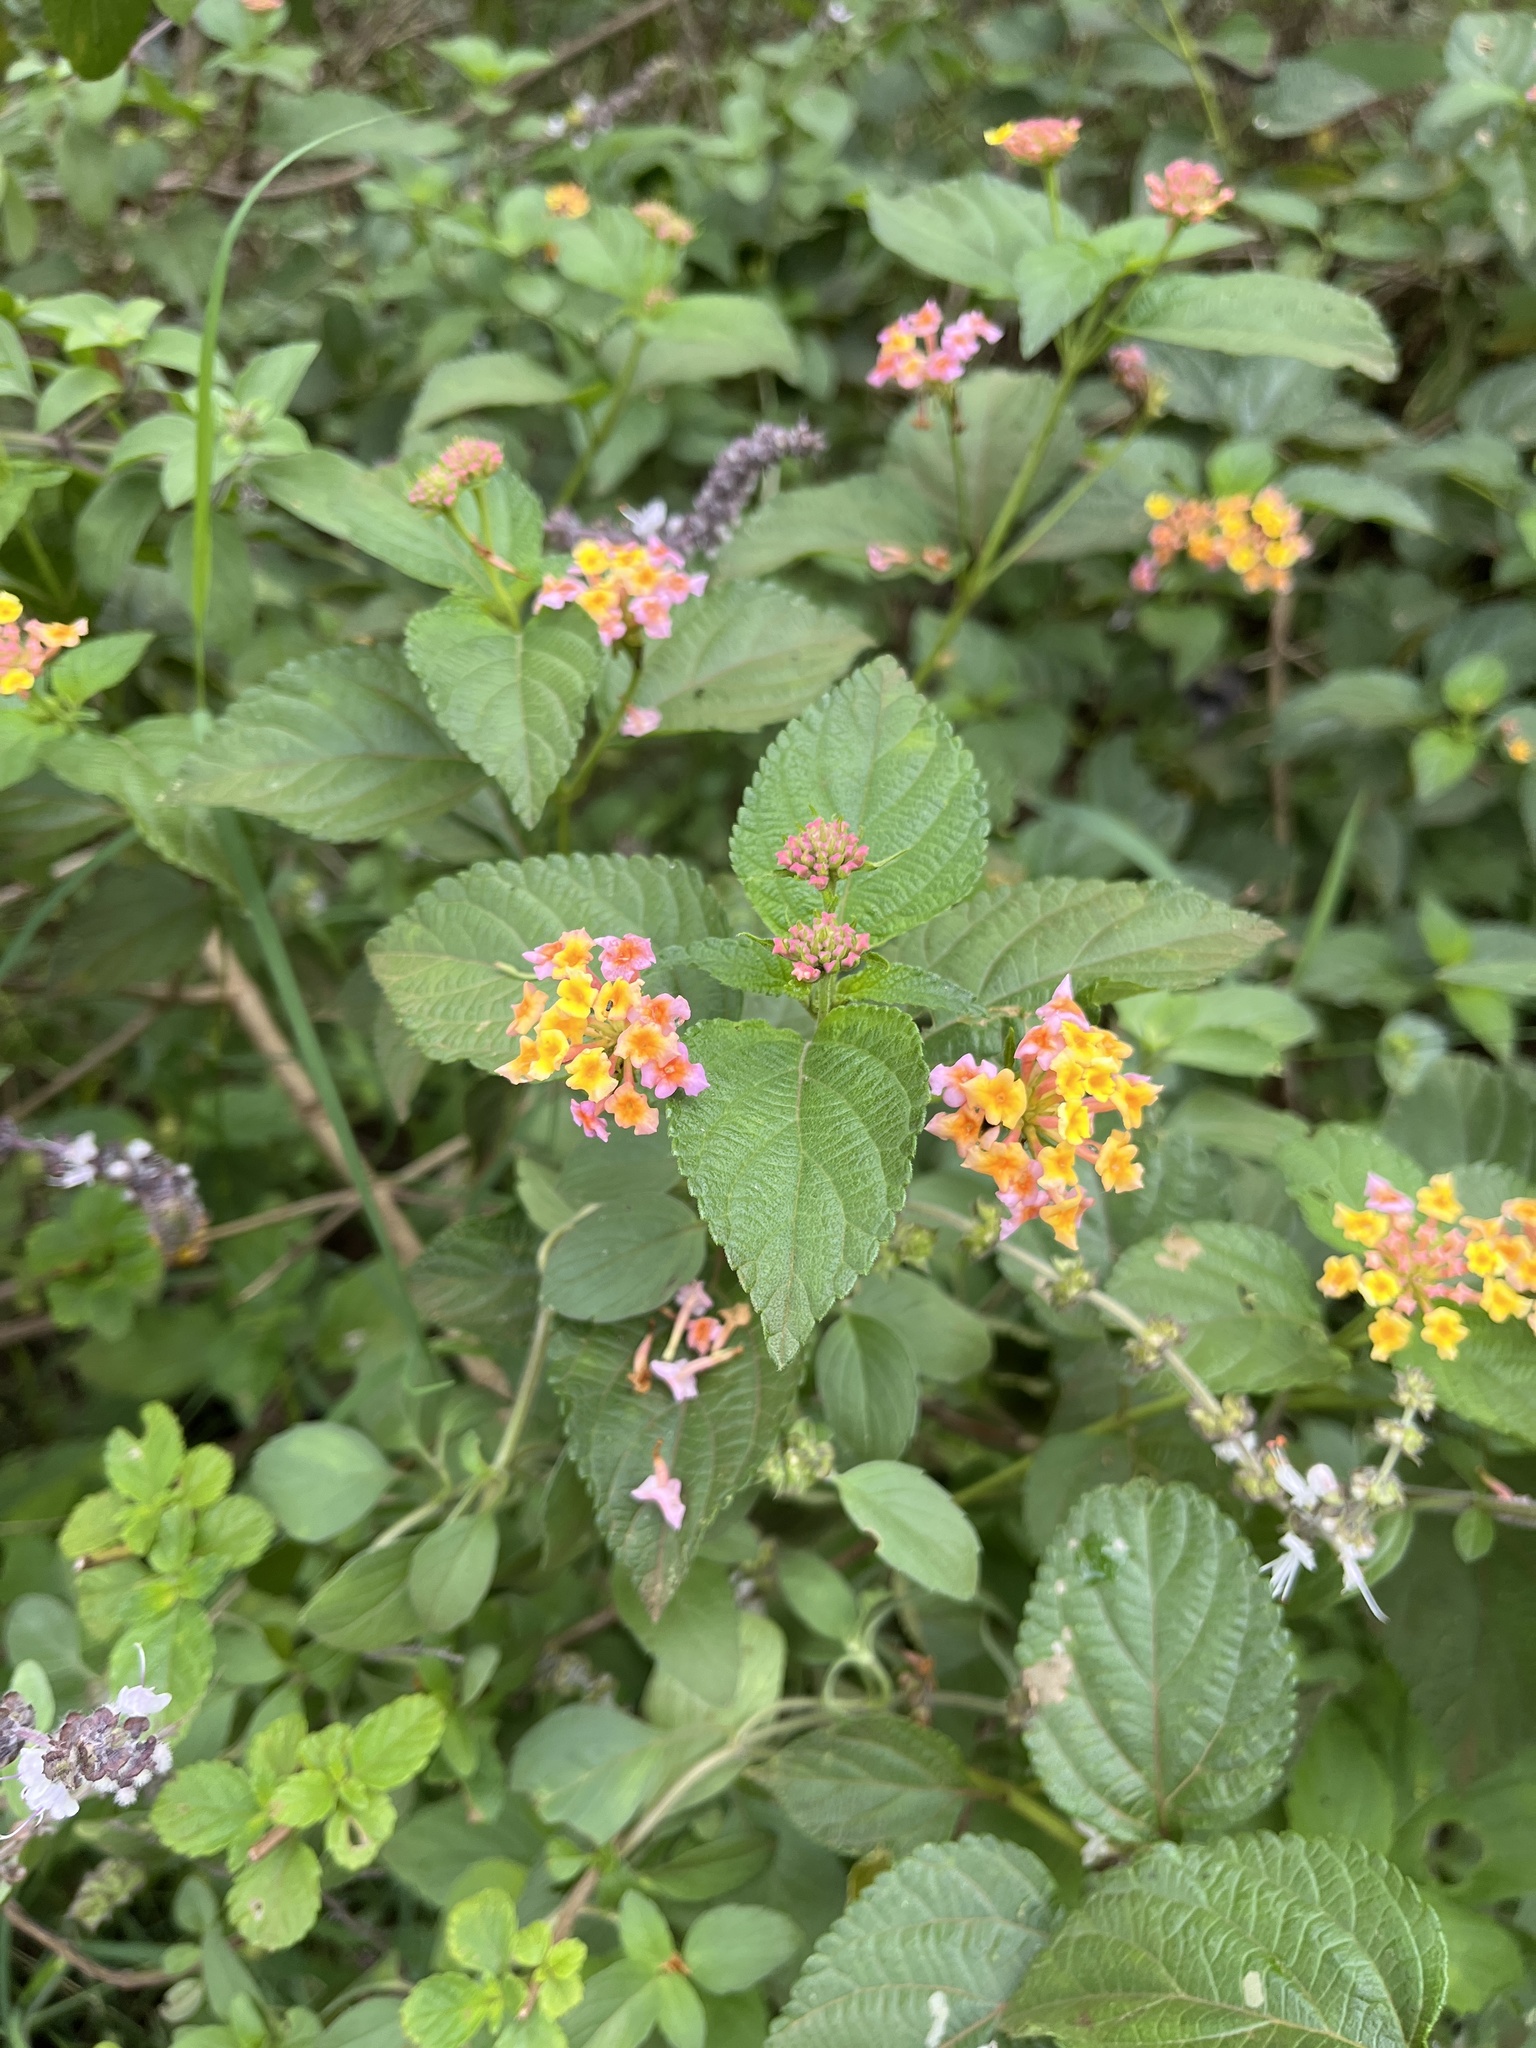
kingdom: Plantae
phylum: Tracheophyta
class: Magnoliopsida
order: Lamiales
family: Verbenaceae
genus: Lantana
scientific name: Lantana camara
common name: Lantana
